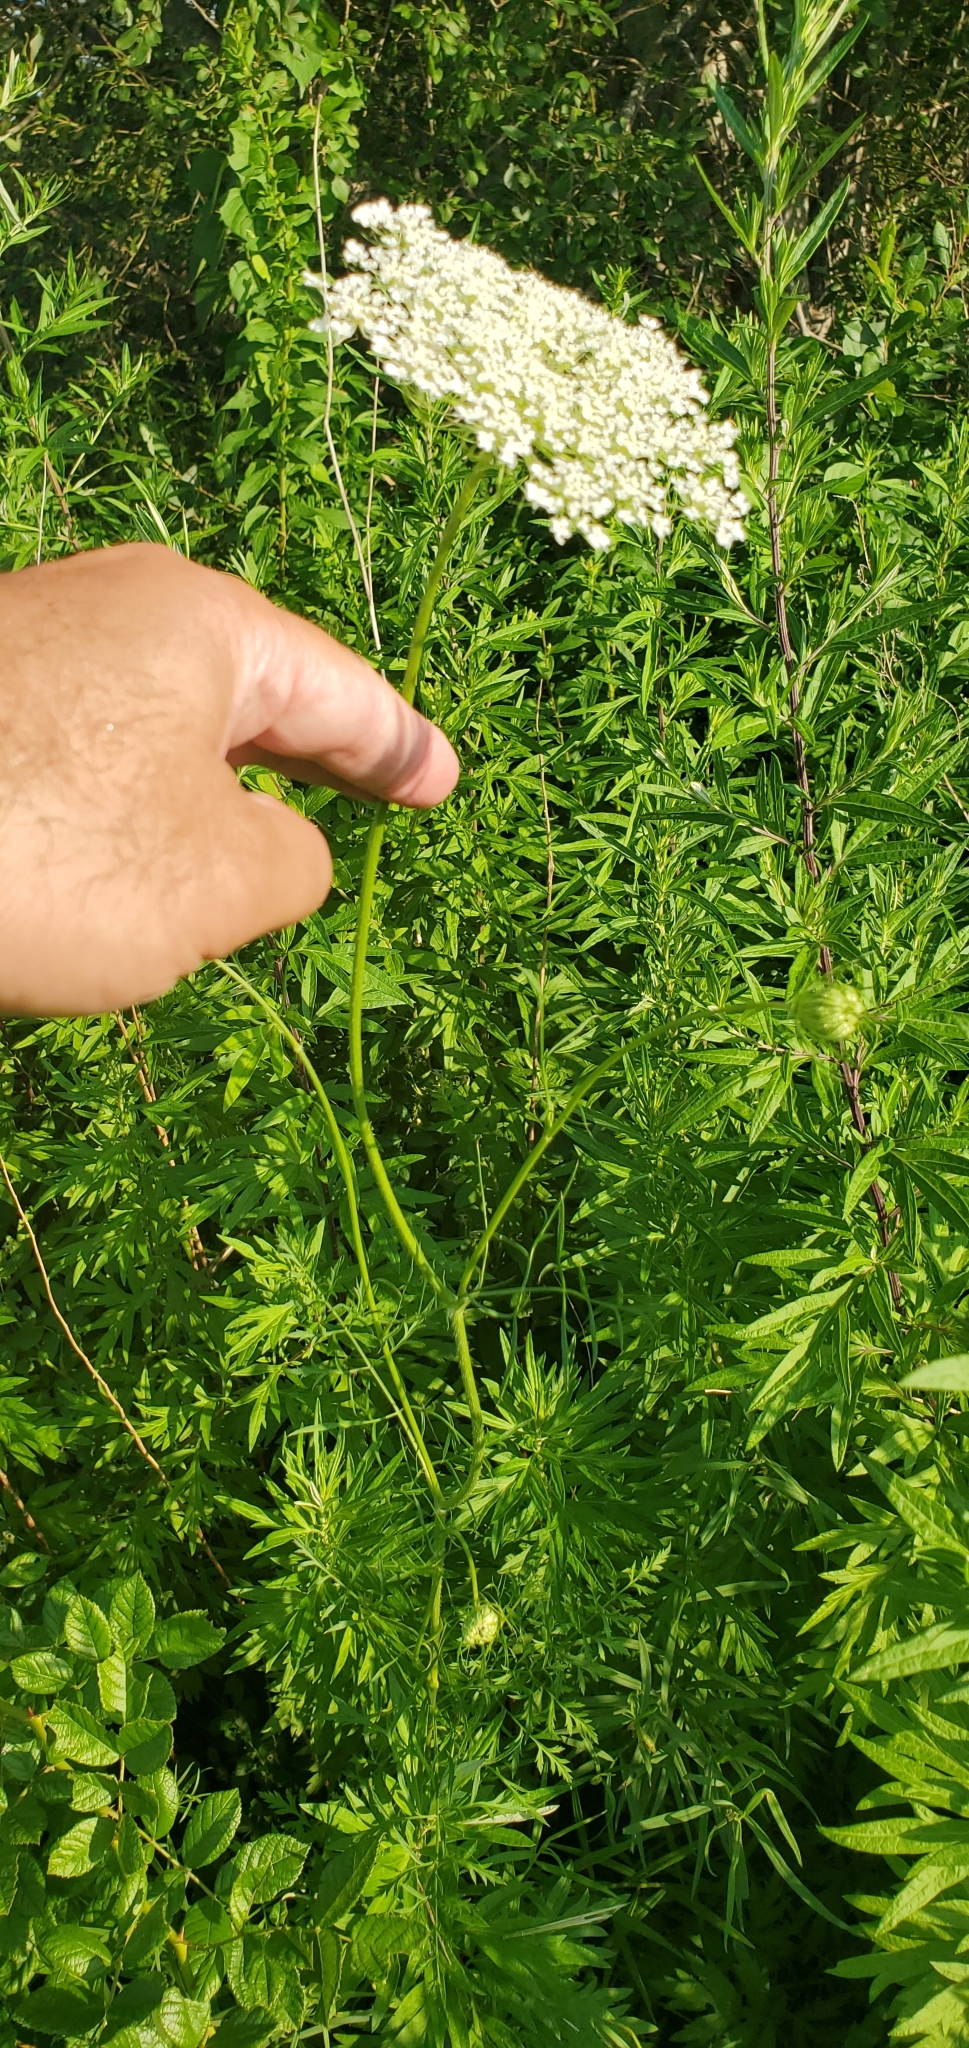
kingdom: Plantae
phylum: Tracheophyta
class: Magnoliopsida
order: Apiales
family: Apiaceae
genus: Daucus
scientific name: Daucus carota
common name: Wild carrot
